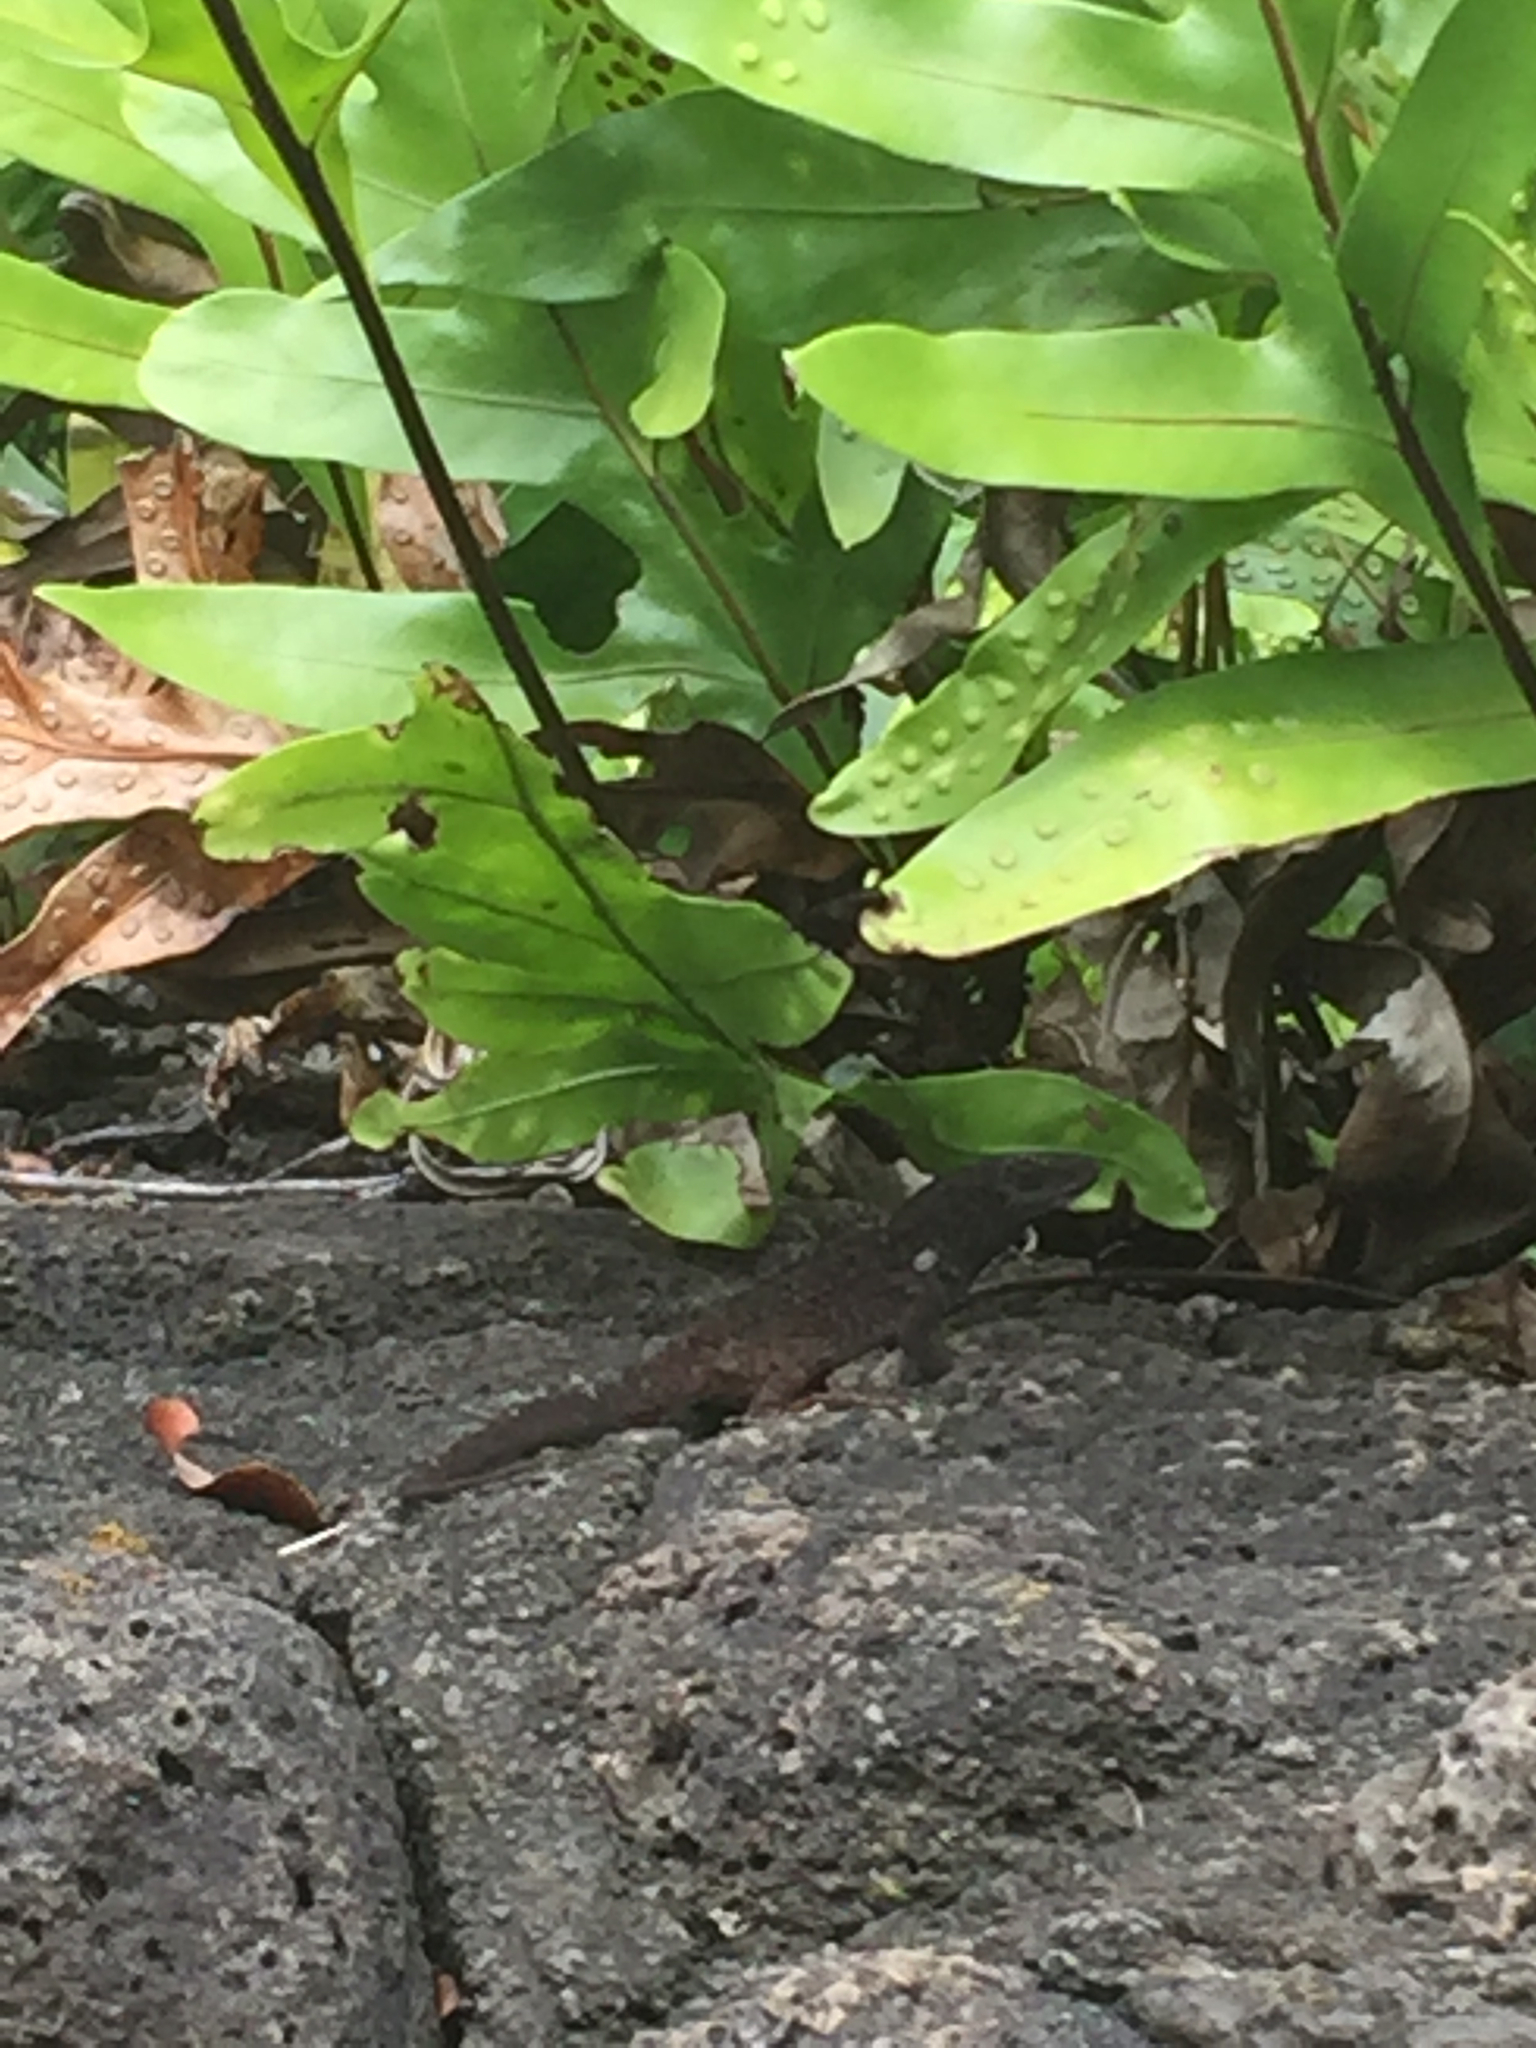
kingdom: Animalia
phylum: Chordata
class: Squamata
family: Dactyloidae
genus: Anolis
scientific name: Anolis sagrei
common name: Brown anole
